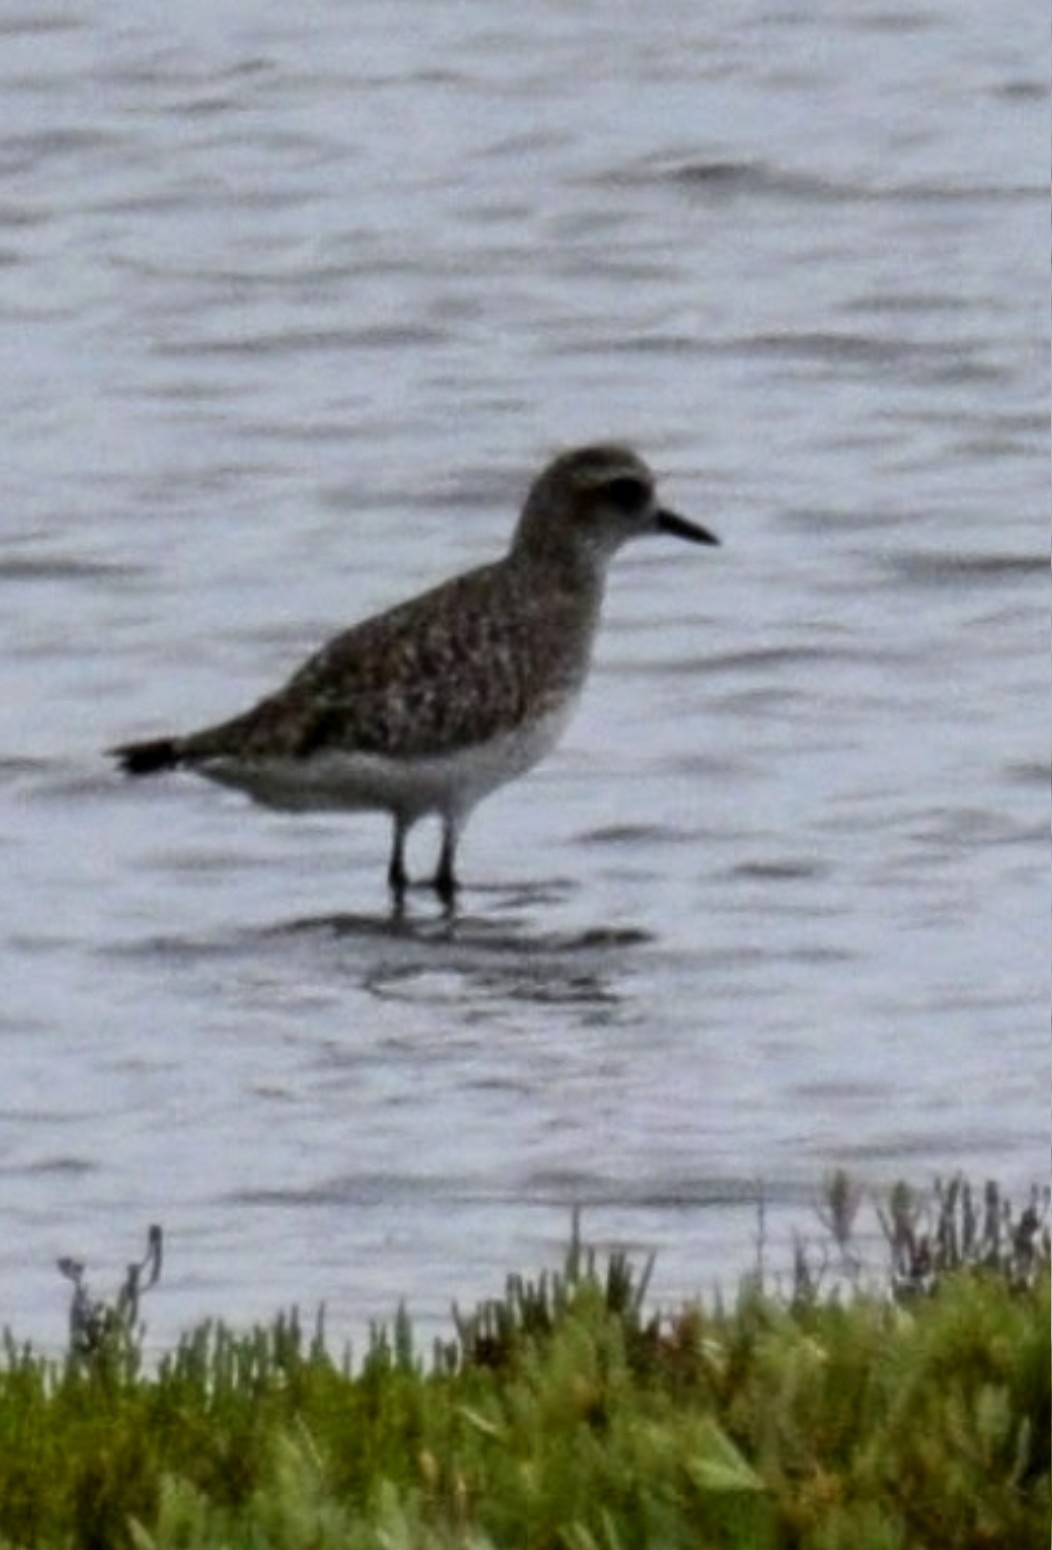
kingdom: Animalia
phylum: Chordata
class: Aves
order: Charadriiformes
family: Charadriidae
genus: Pluvialis
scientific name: Pluvialis squatarola
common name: Grey plover
